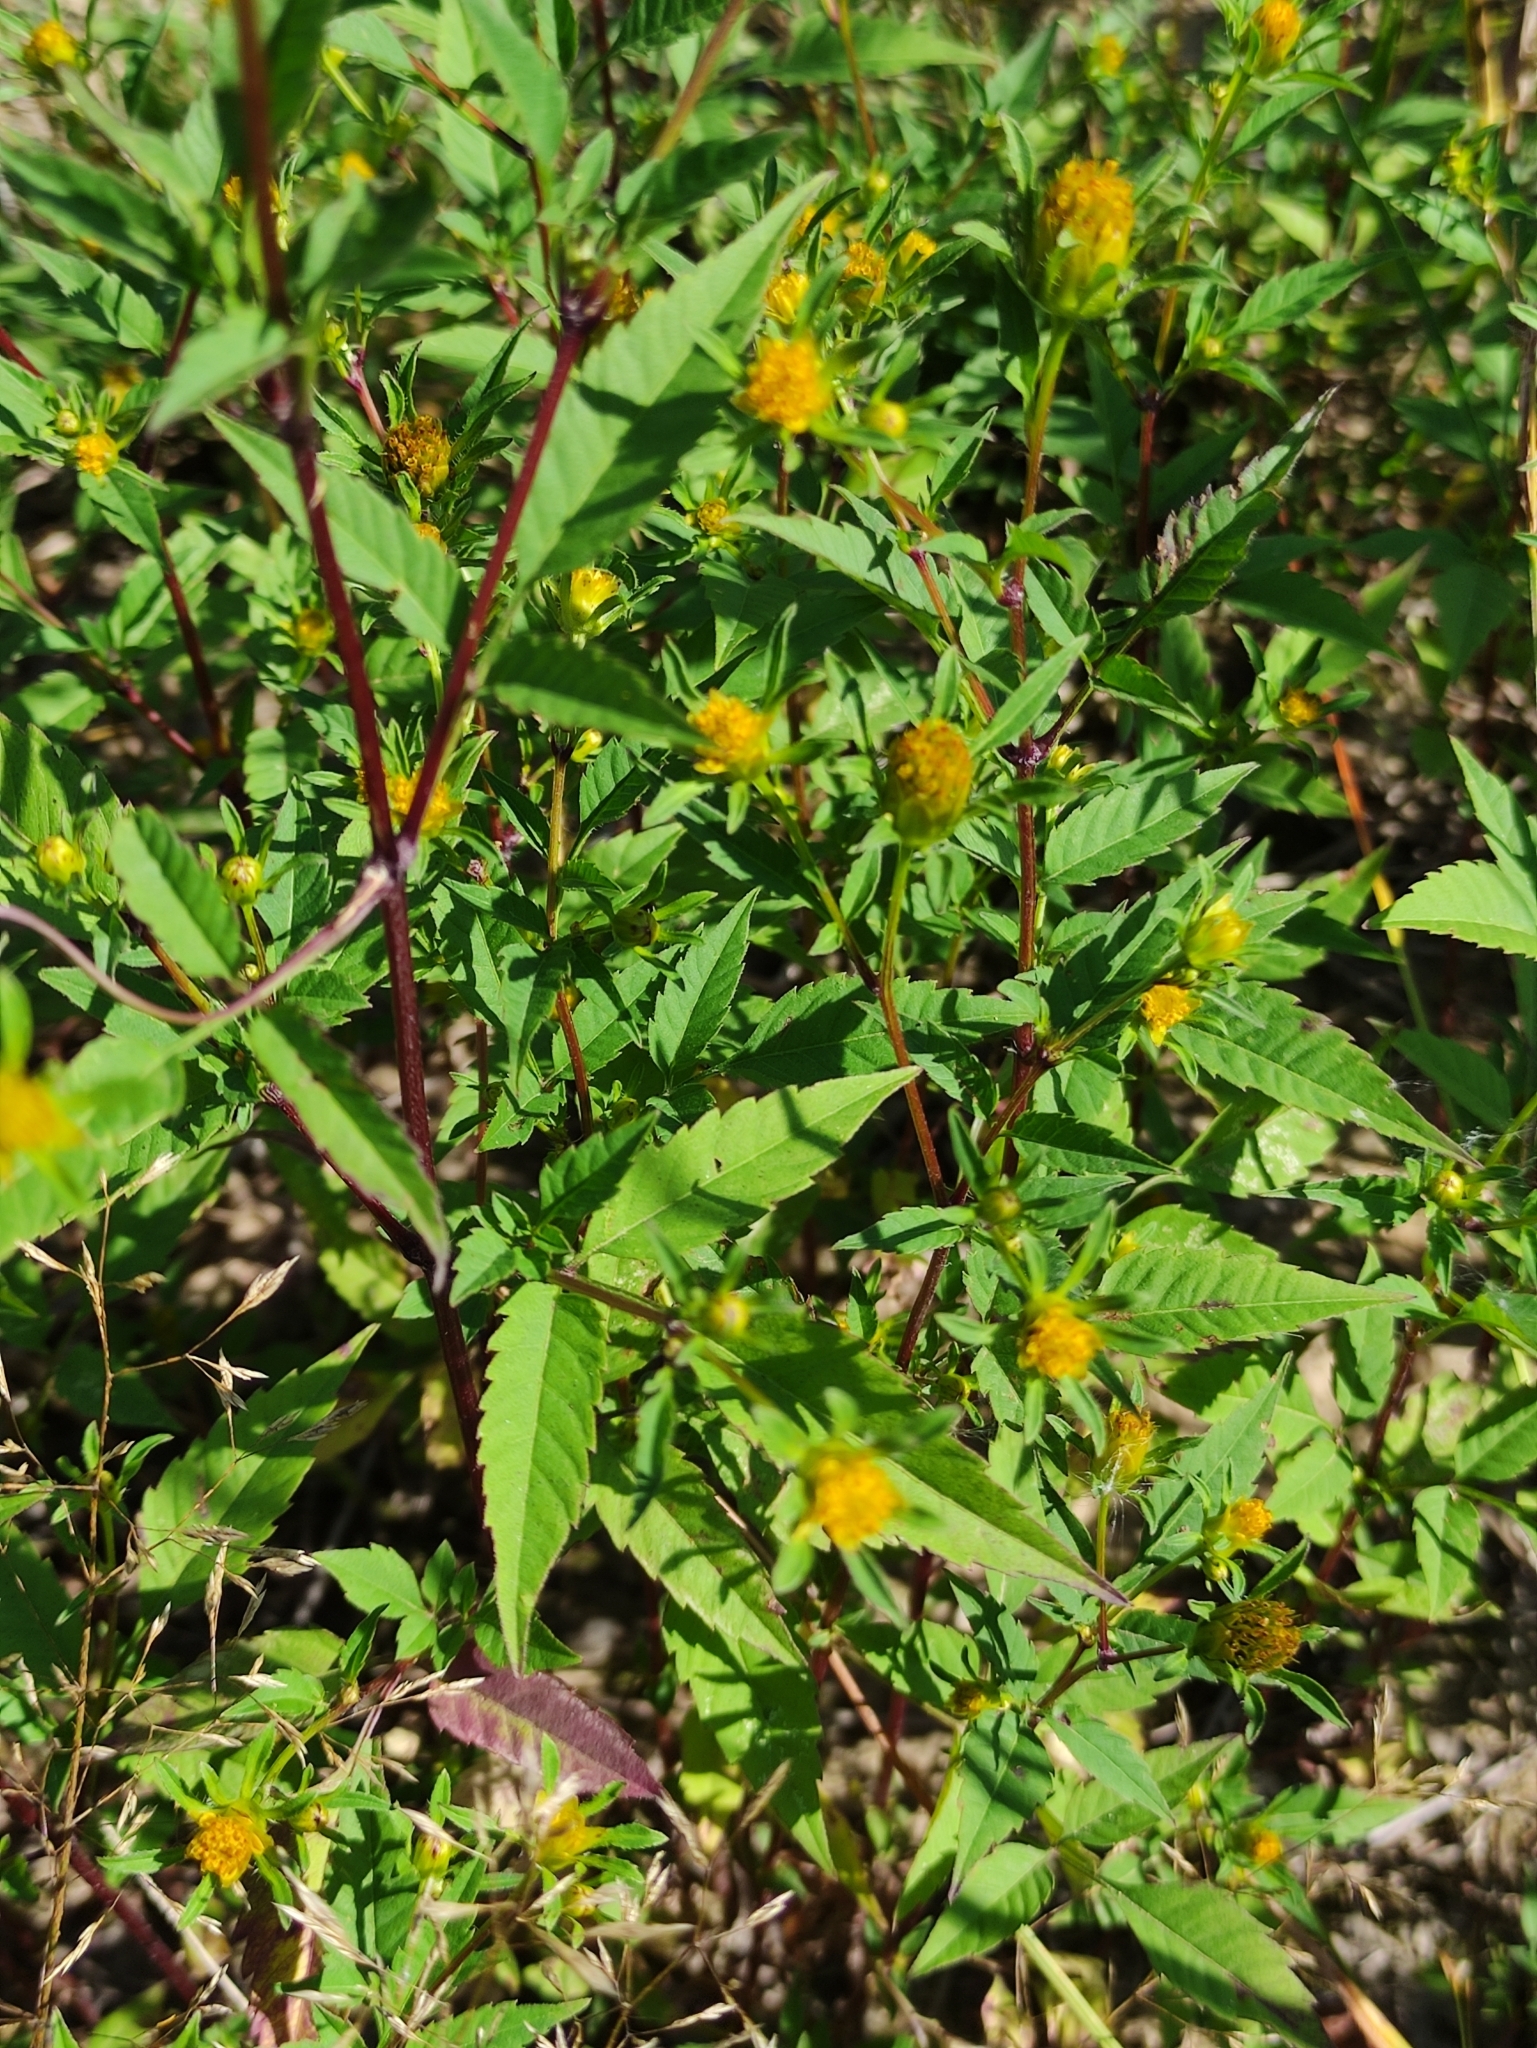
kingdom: Plantae
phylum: Tracheophyta
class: Magnoliopsida
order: Asterales
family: Asteraceae
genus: Bidens
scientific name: Bidens frondosa
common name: Beggarticks
